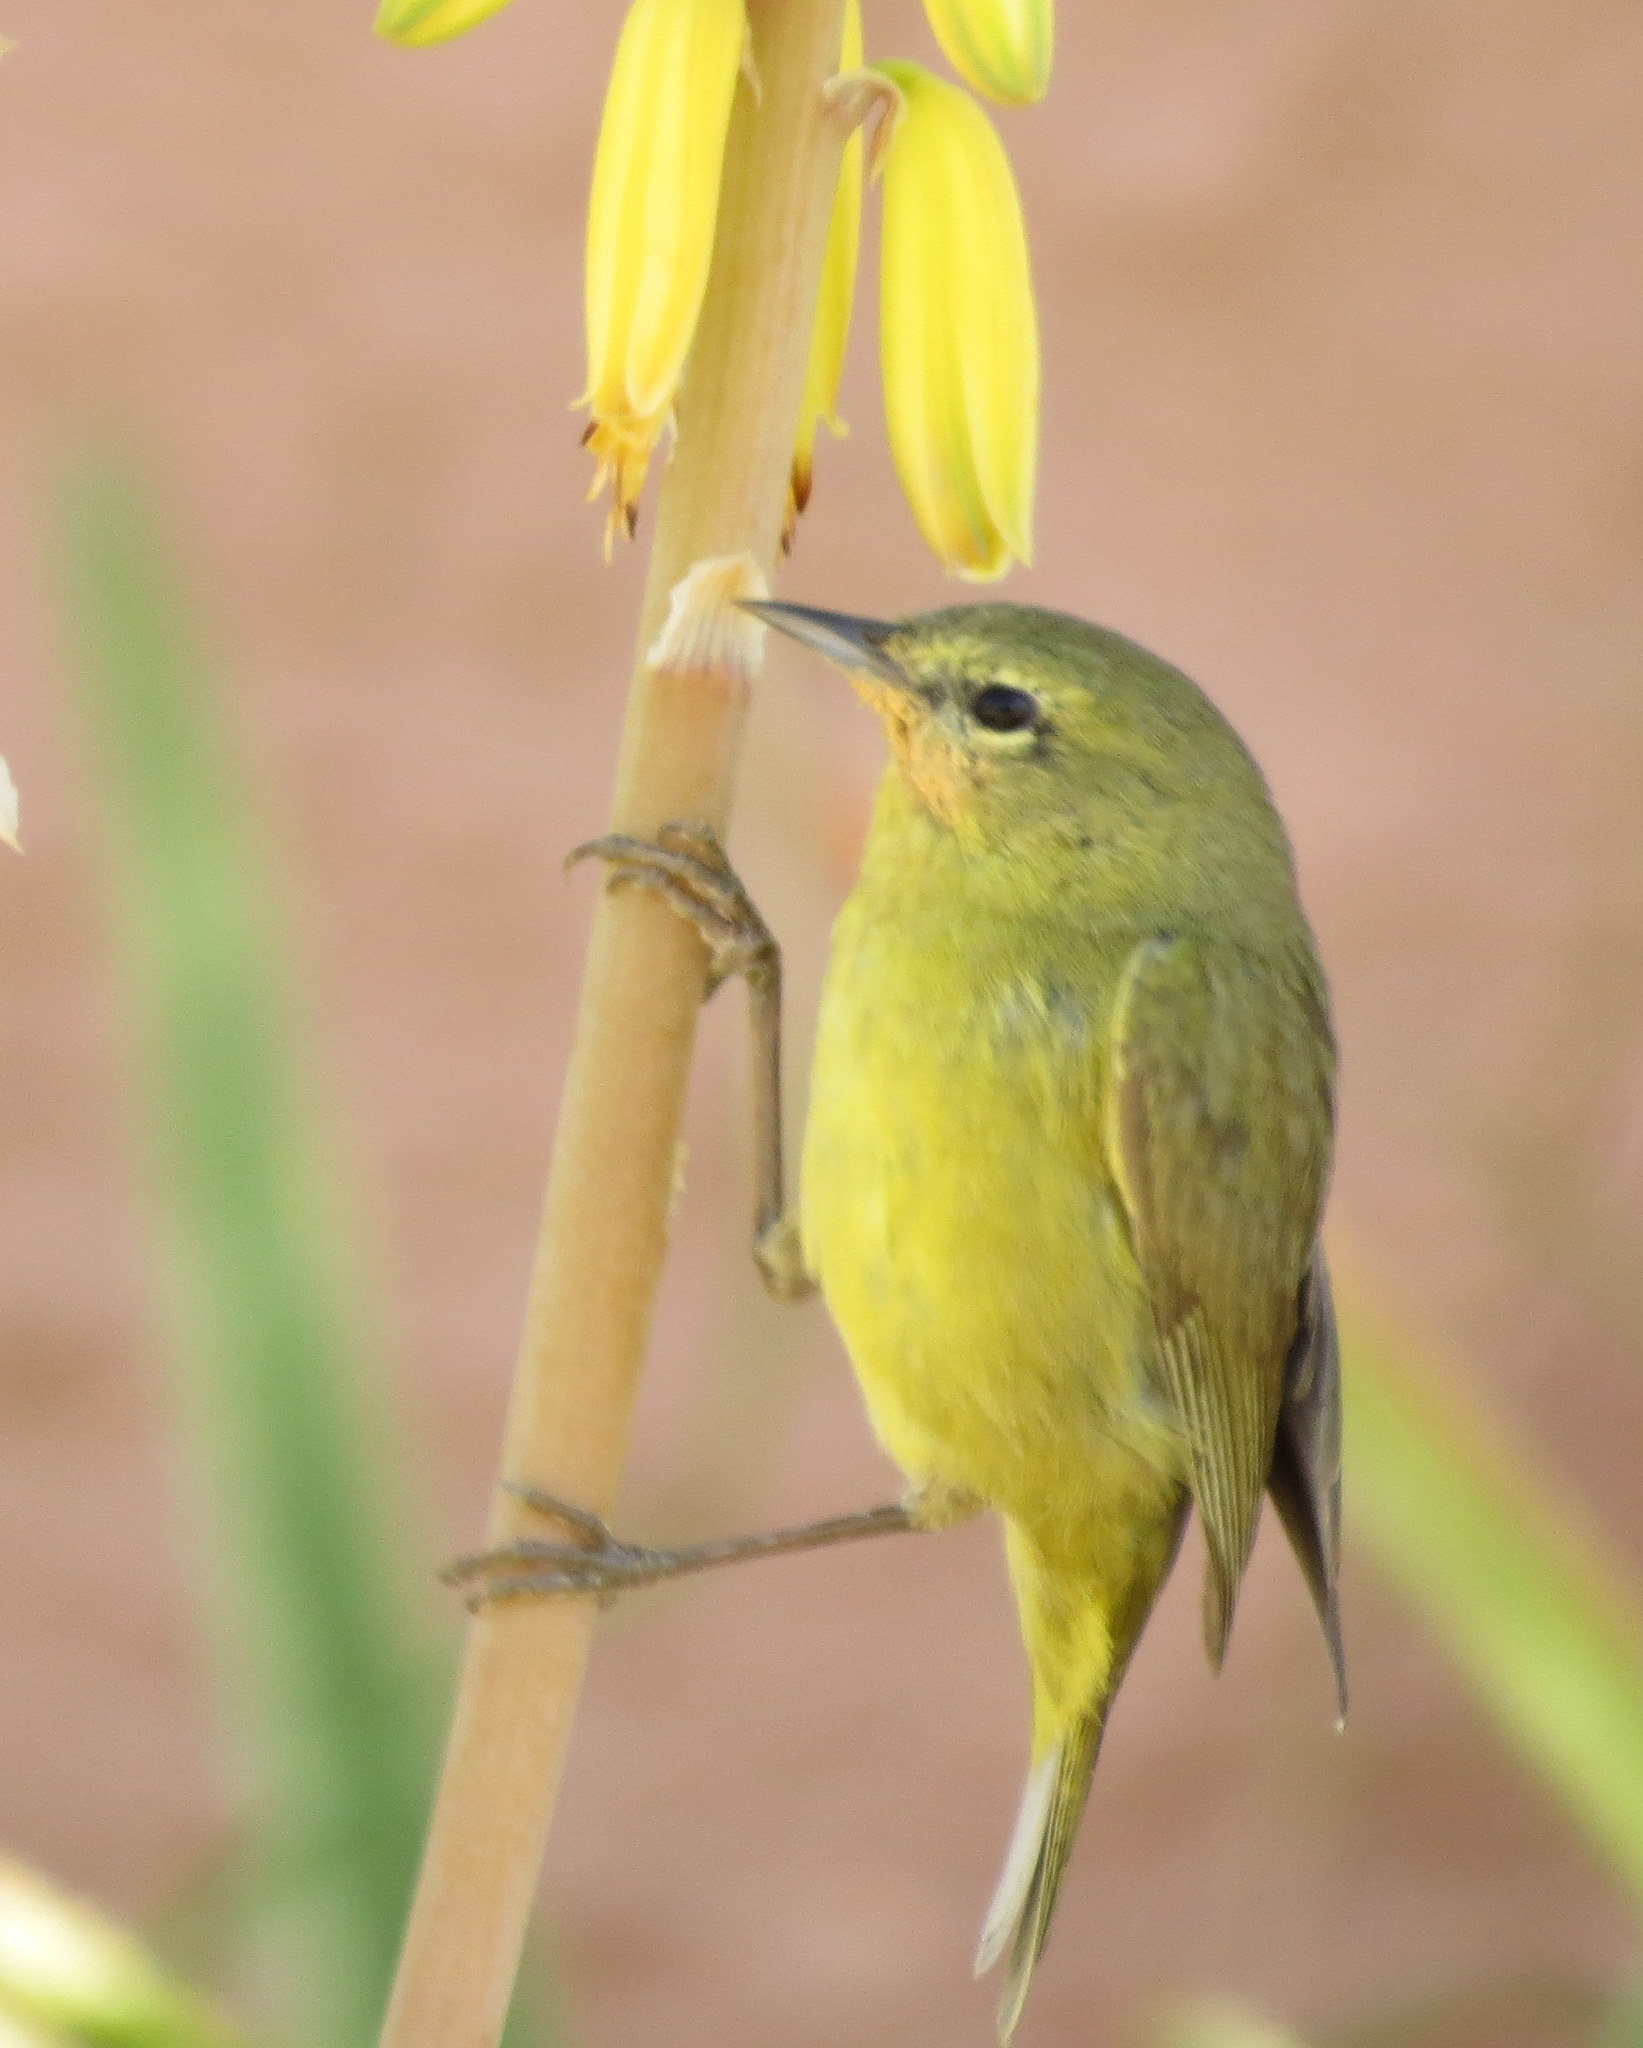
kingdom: Animalia
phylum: Chordata
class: Aves
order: Passeriformes
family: Parulidae
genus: Leiothlypis
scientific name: Leiothlypis celata
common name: Orange-crowned warbler
